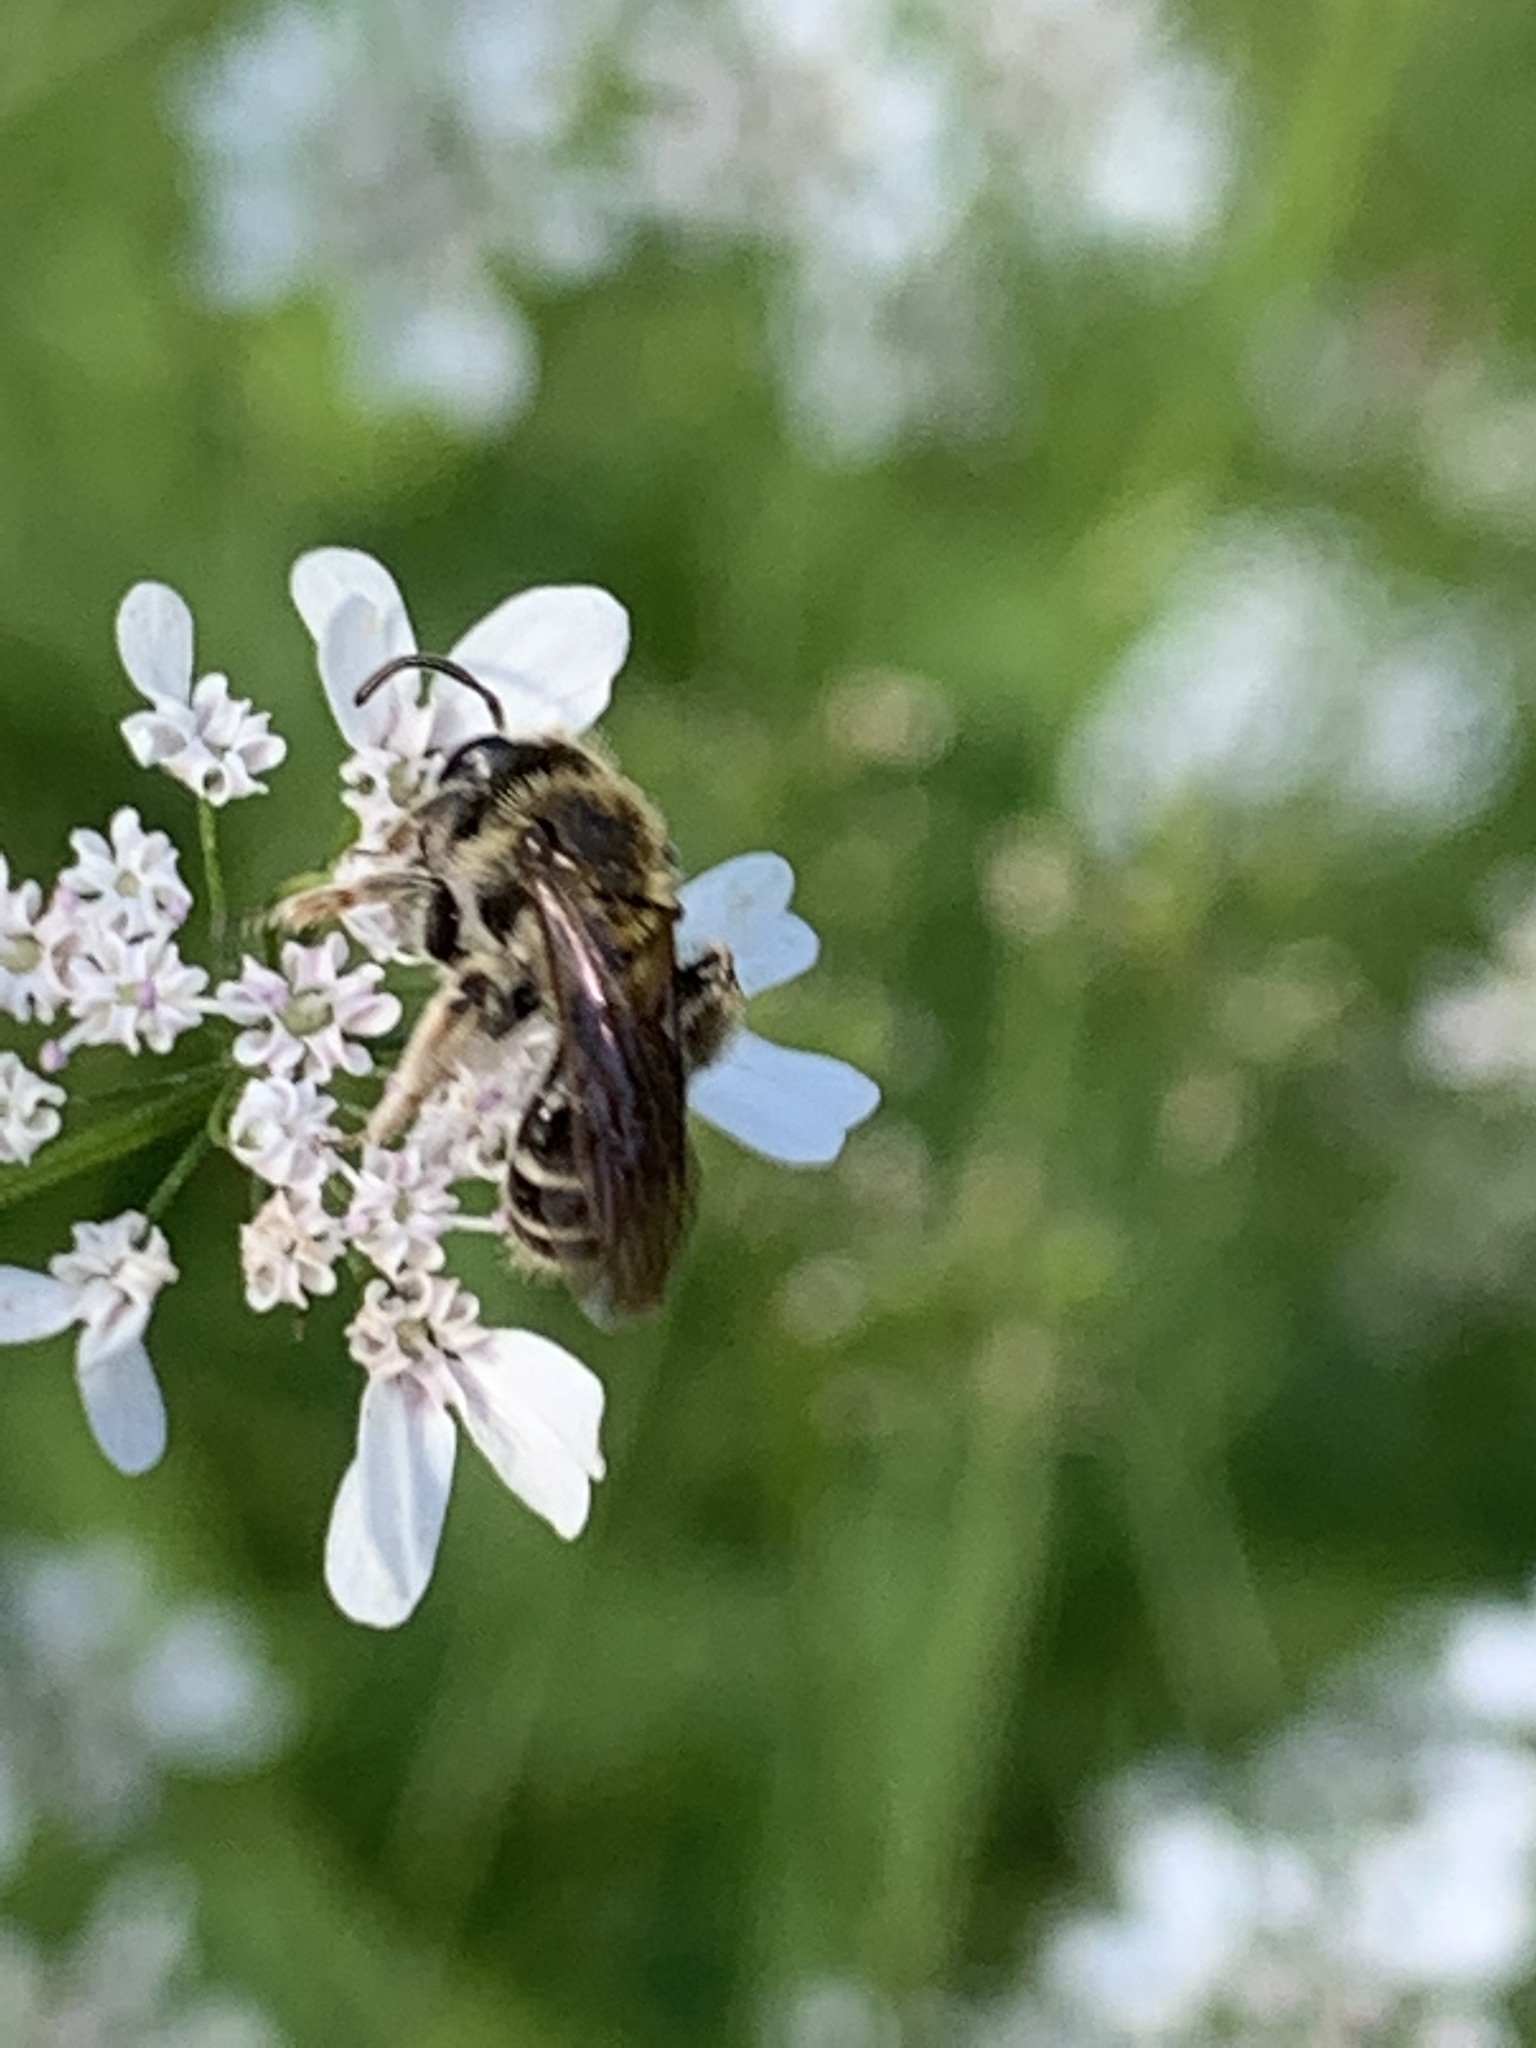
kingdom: Animalia
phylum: Arthropoda
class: Insecta
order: Hymenoptera
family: Andrenidae
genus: Andrena
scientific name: Andrena
